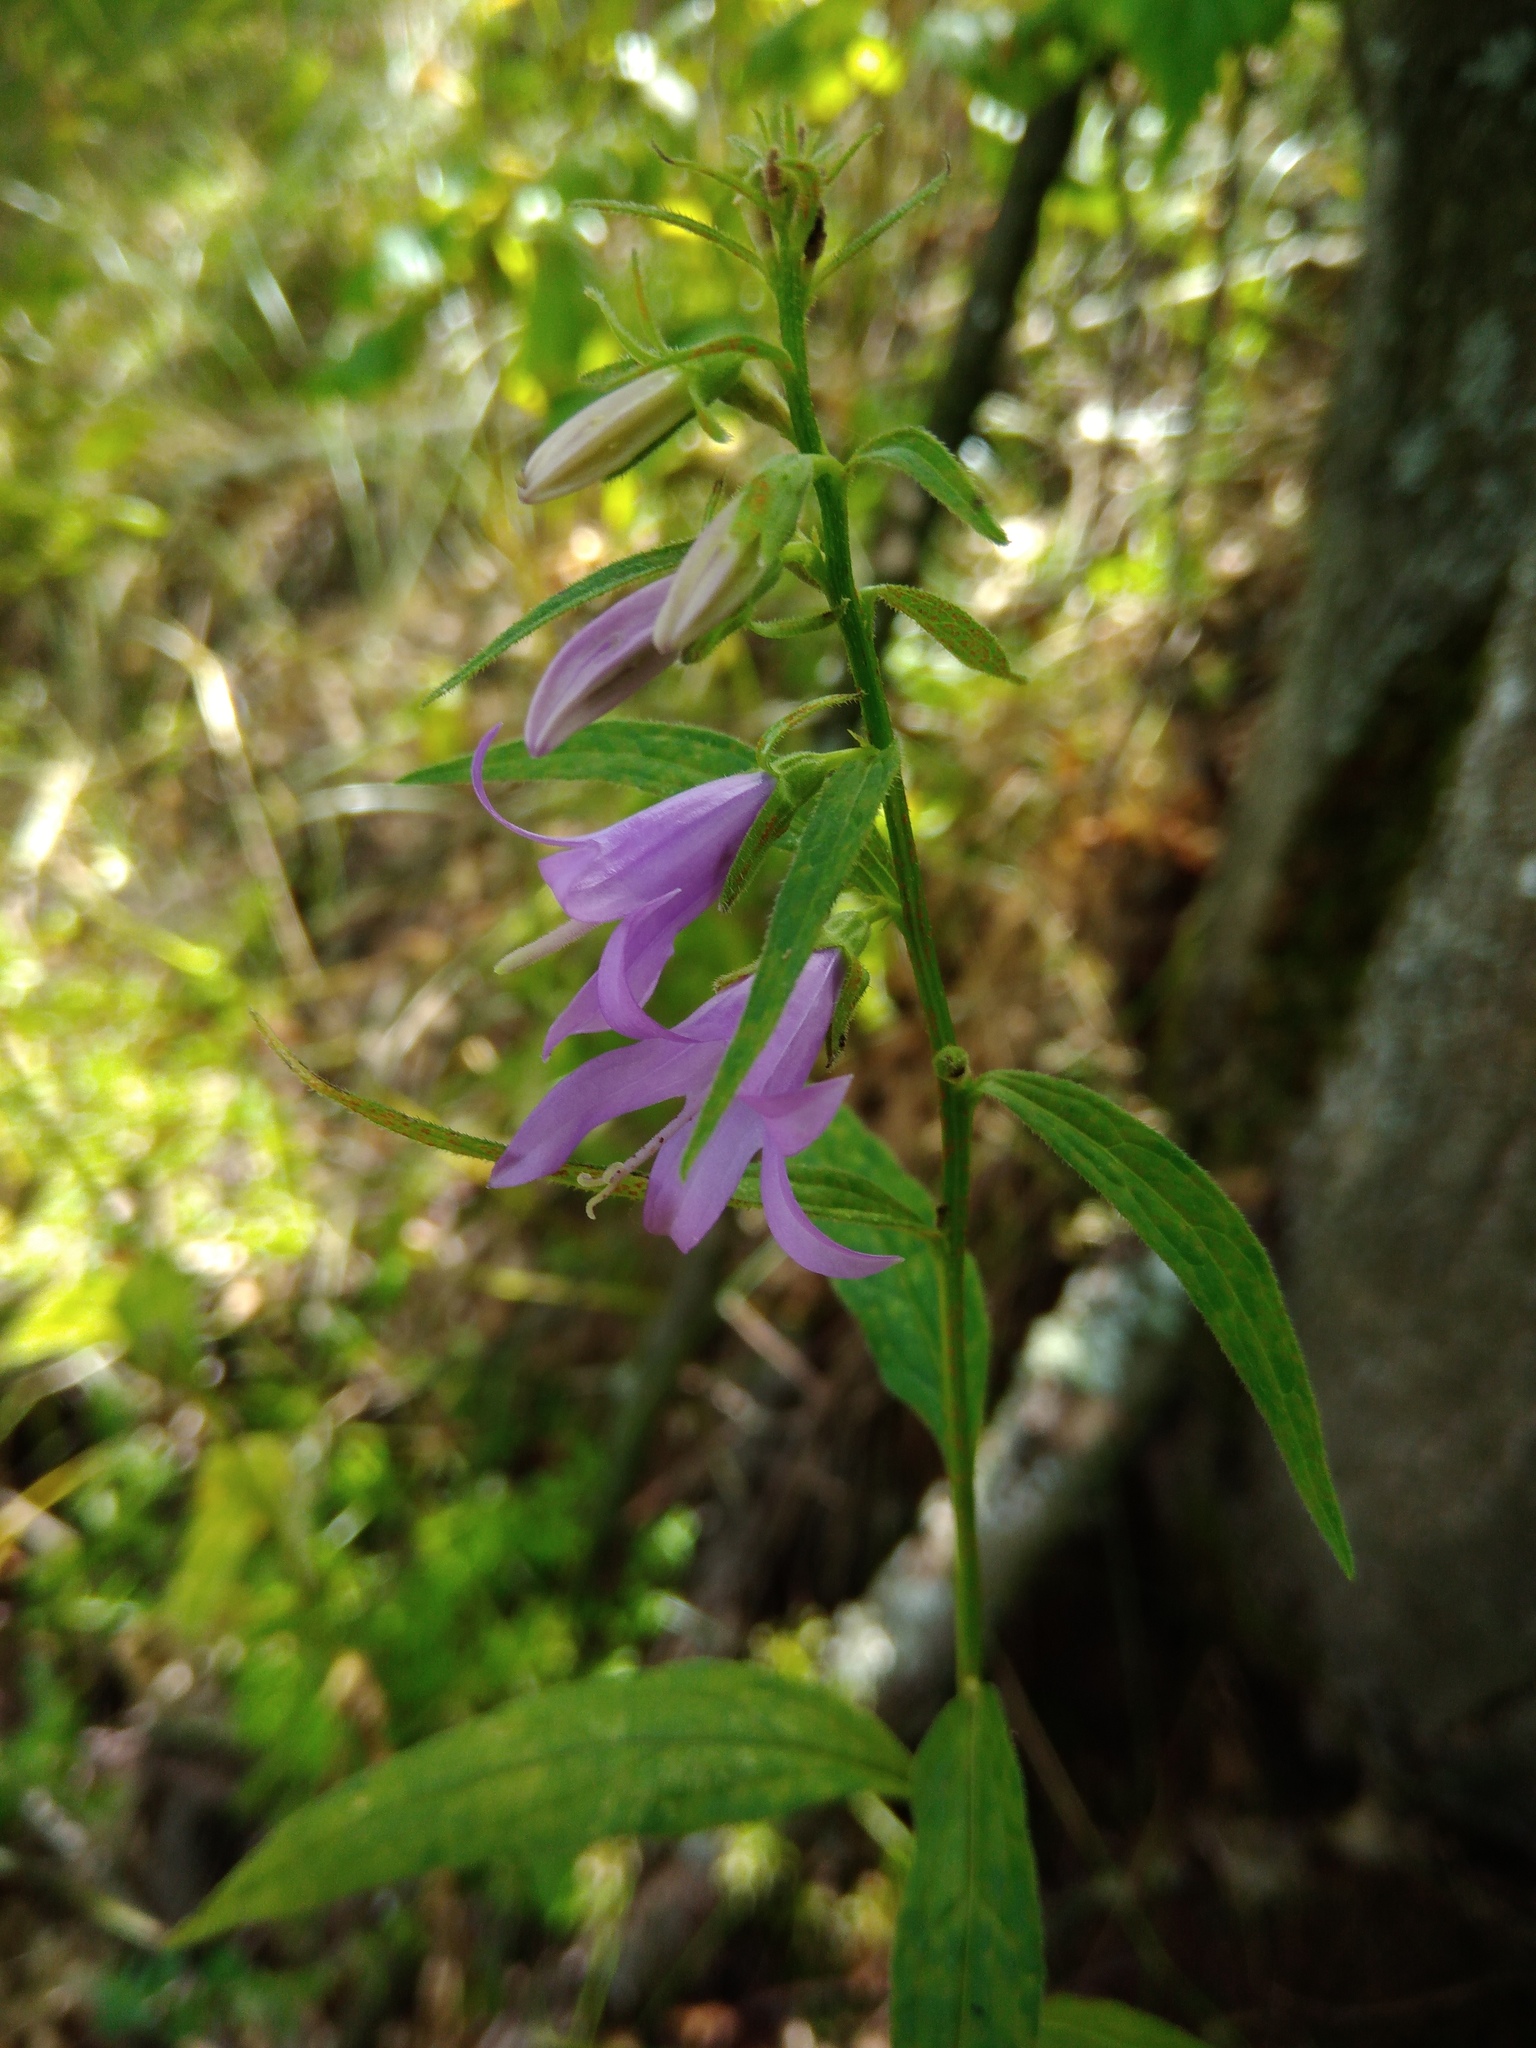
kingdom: Plantae
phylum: Tracheophyta
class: Magnoliopsida
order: Asterales
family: Campanulaceae
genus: Campanula
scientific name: Campanula rapunculoides
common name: Creeping bellflower
